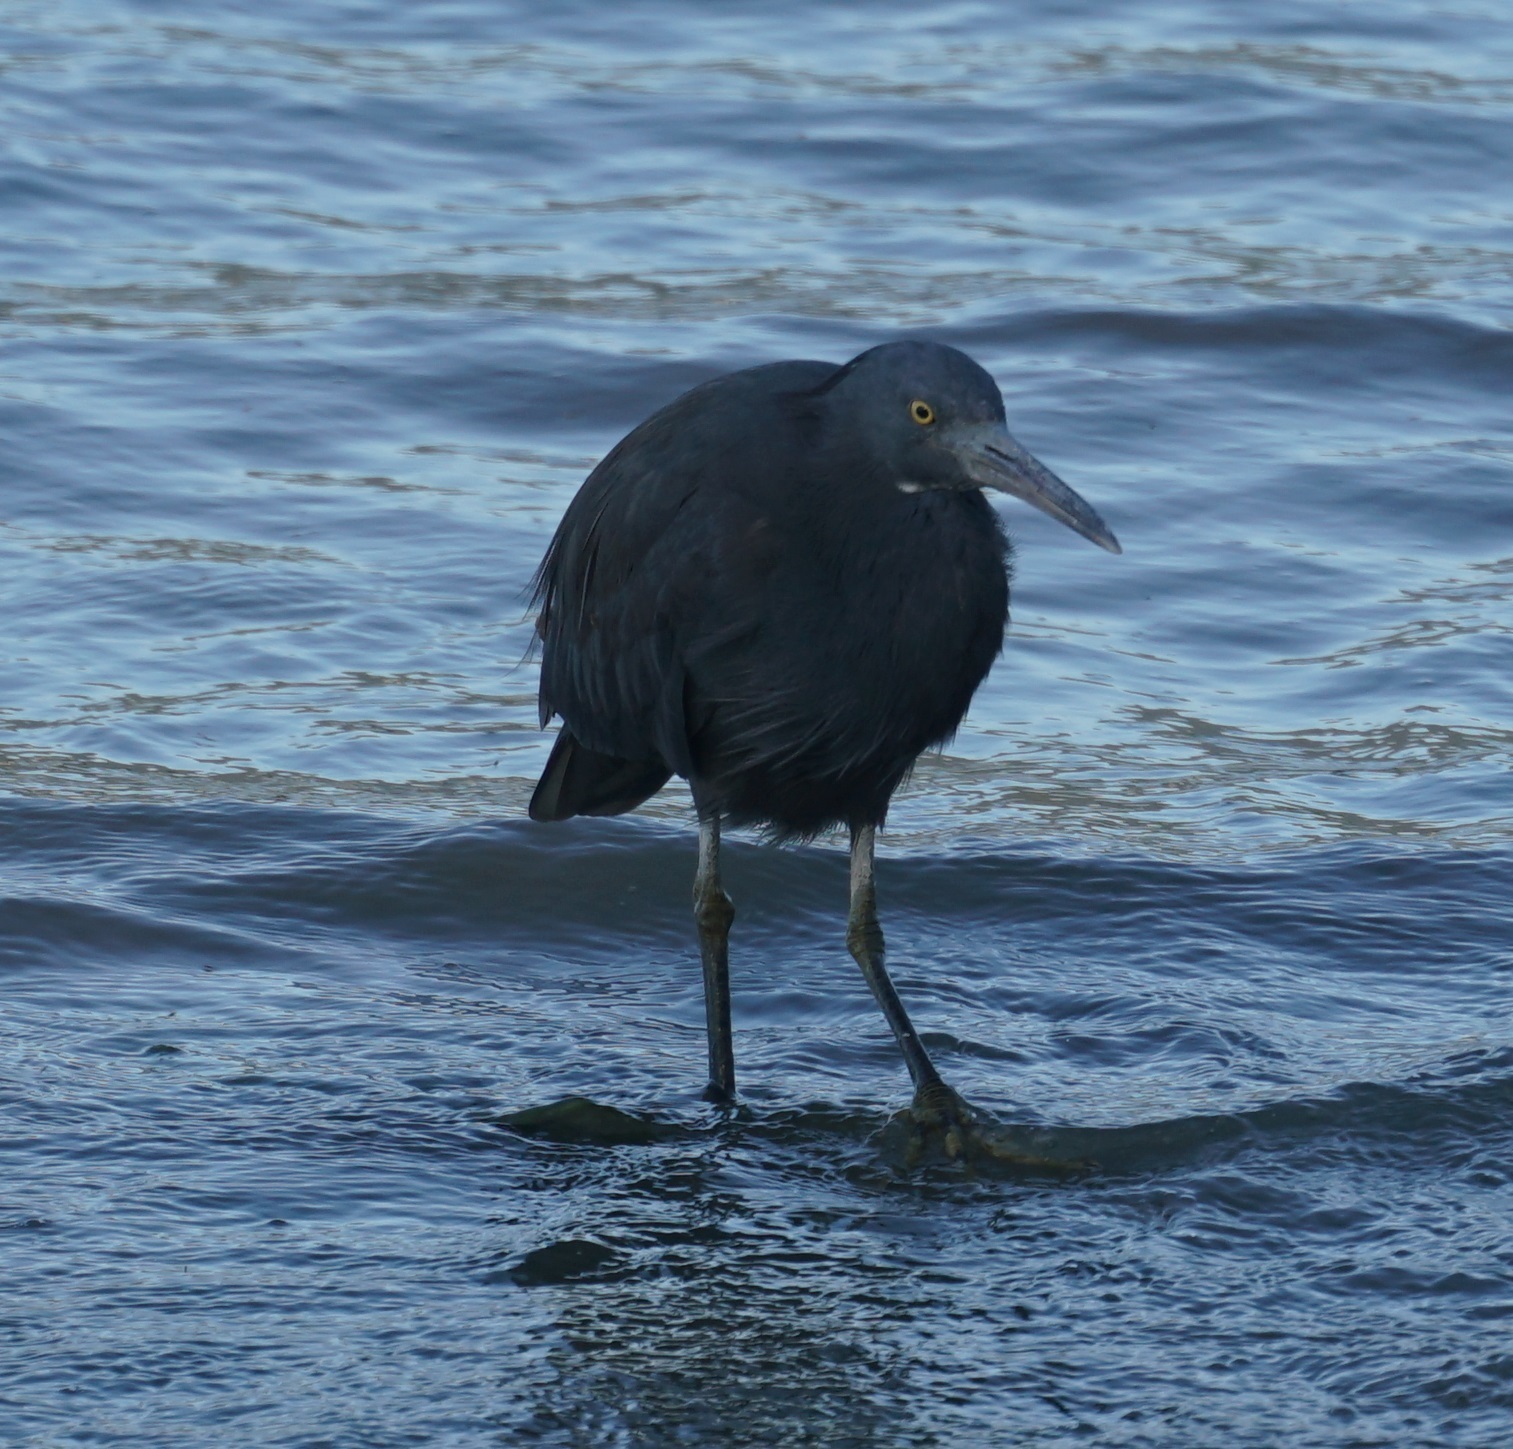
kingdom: Animalia
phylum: Chordata
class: Aves
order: Pelecaniformes
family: Ardeidae
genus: Egretta
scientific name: Egretta sacra
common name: Pacific reef heron
